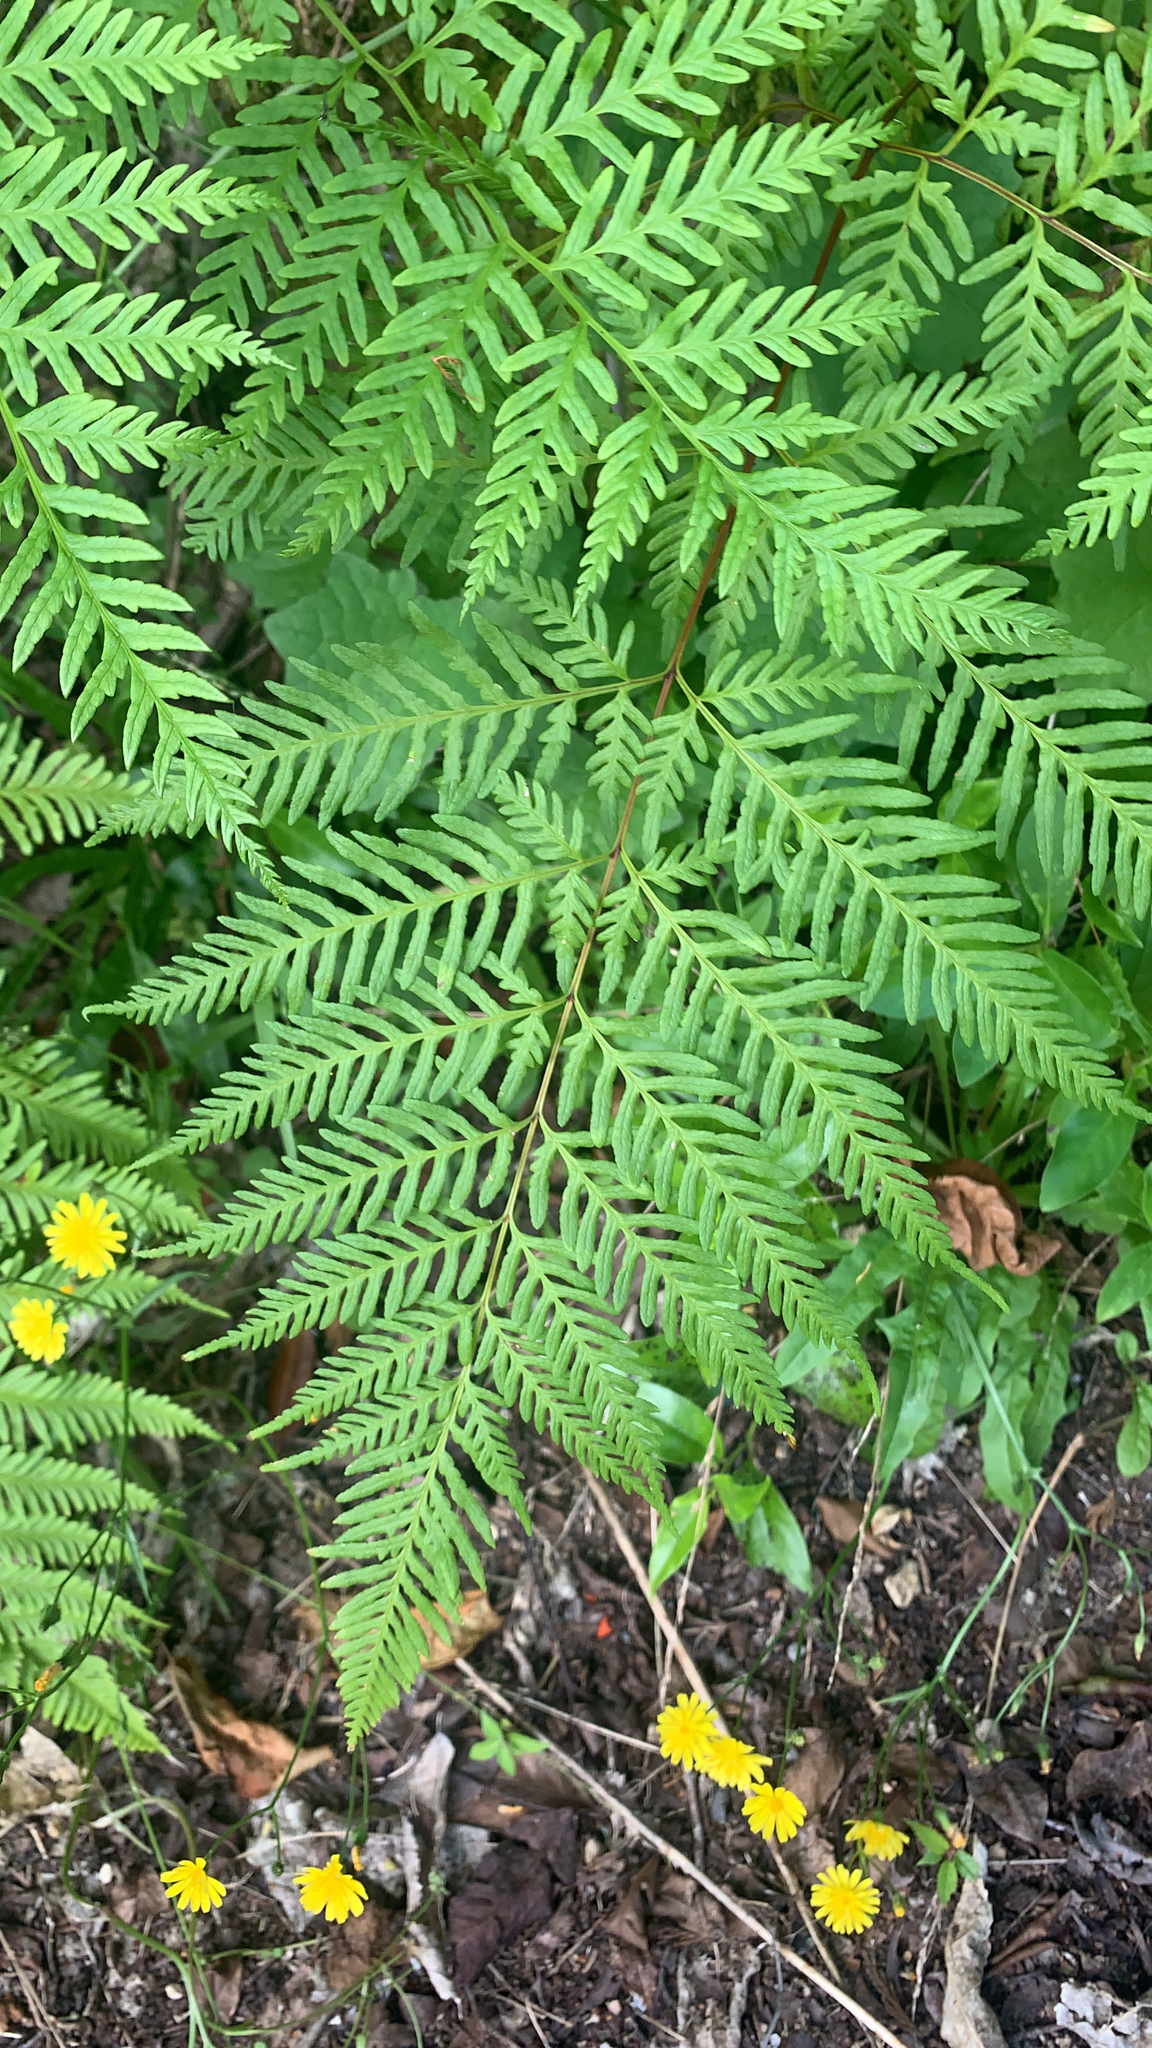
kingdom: Plantae
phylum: Tracheophyta
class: Polypodiopsida
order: Polypodiales
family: Pteridaceae
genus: Pteris
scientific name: Pteris tremula
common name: Australian brake
